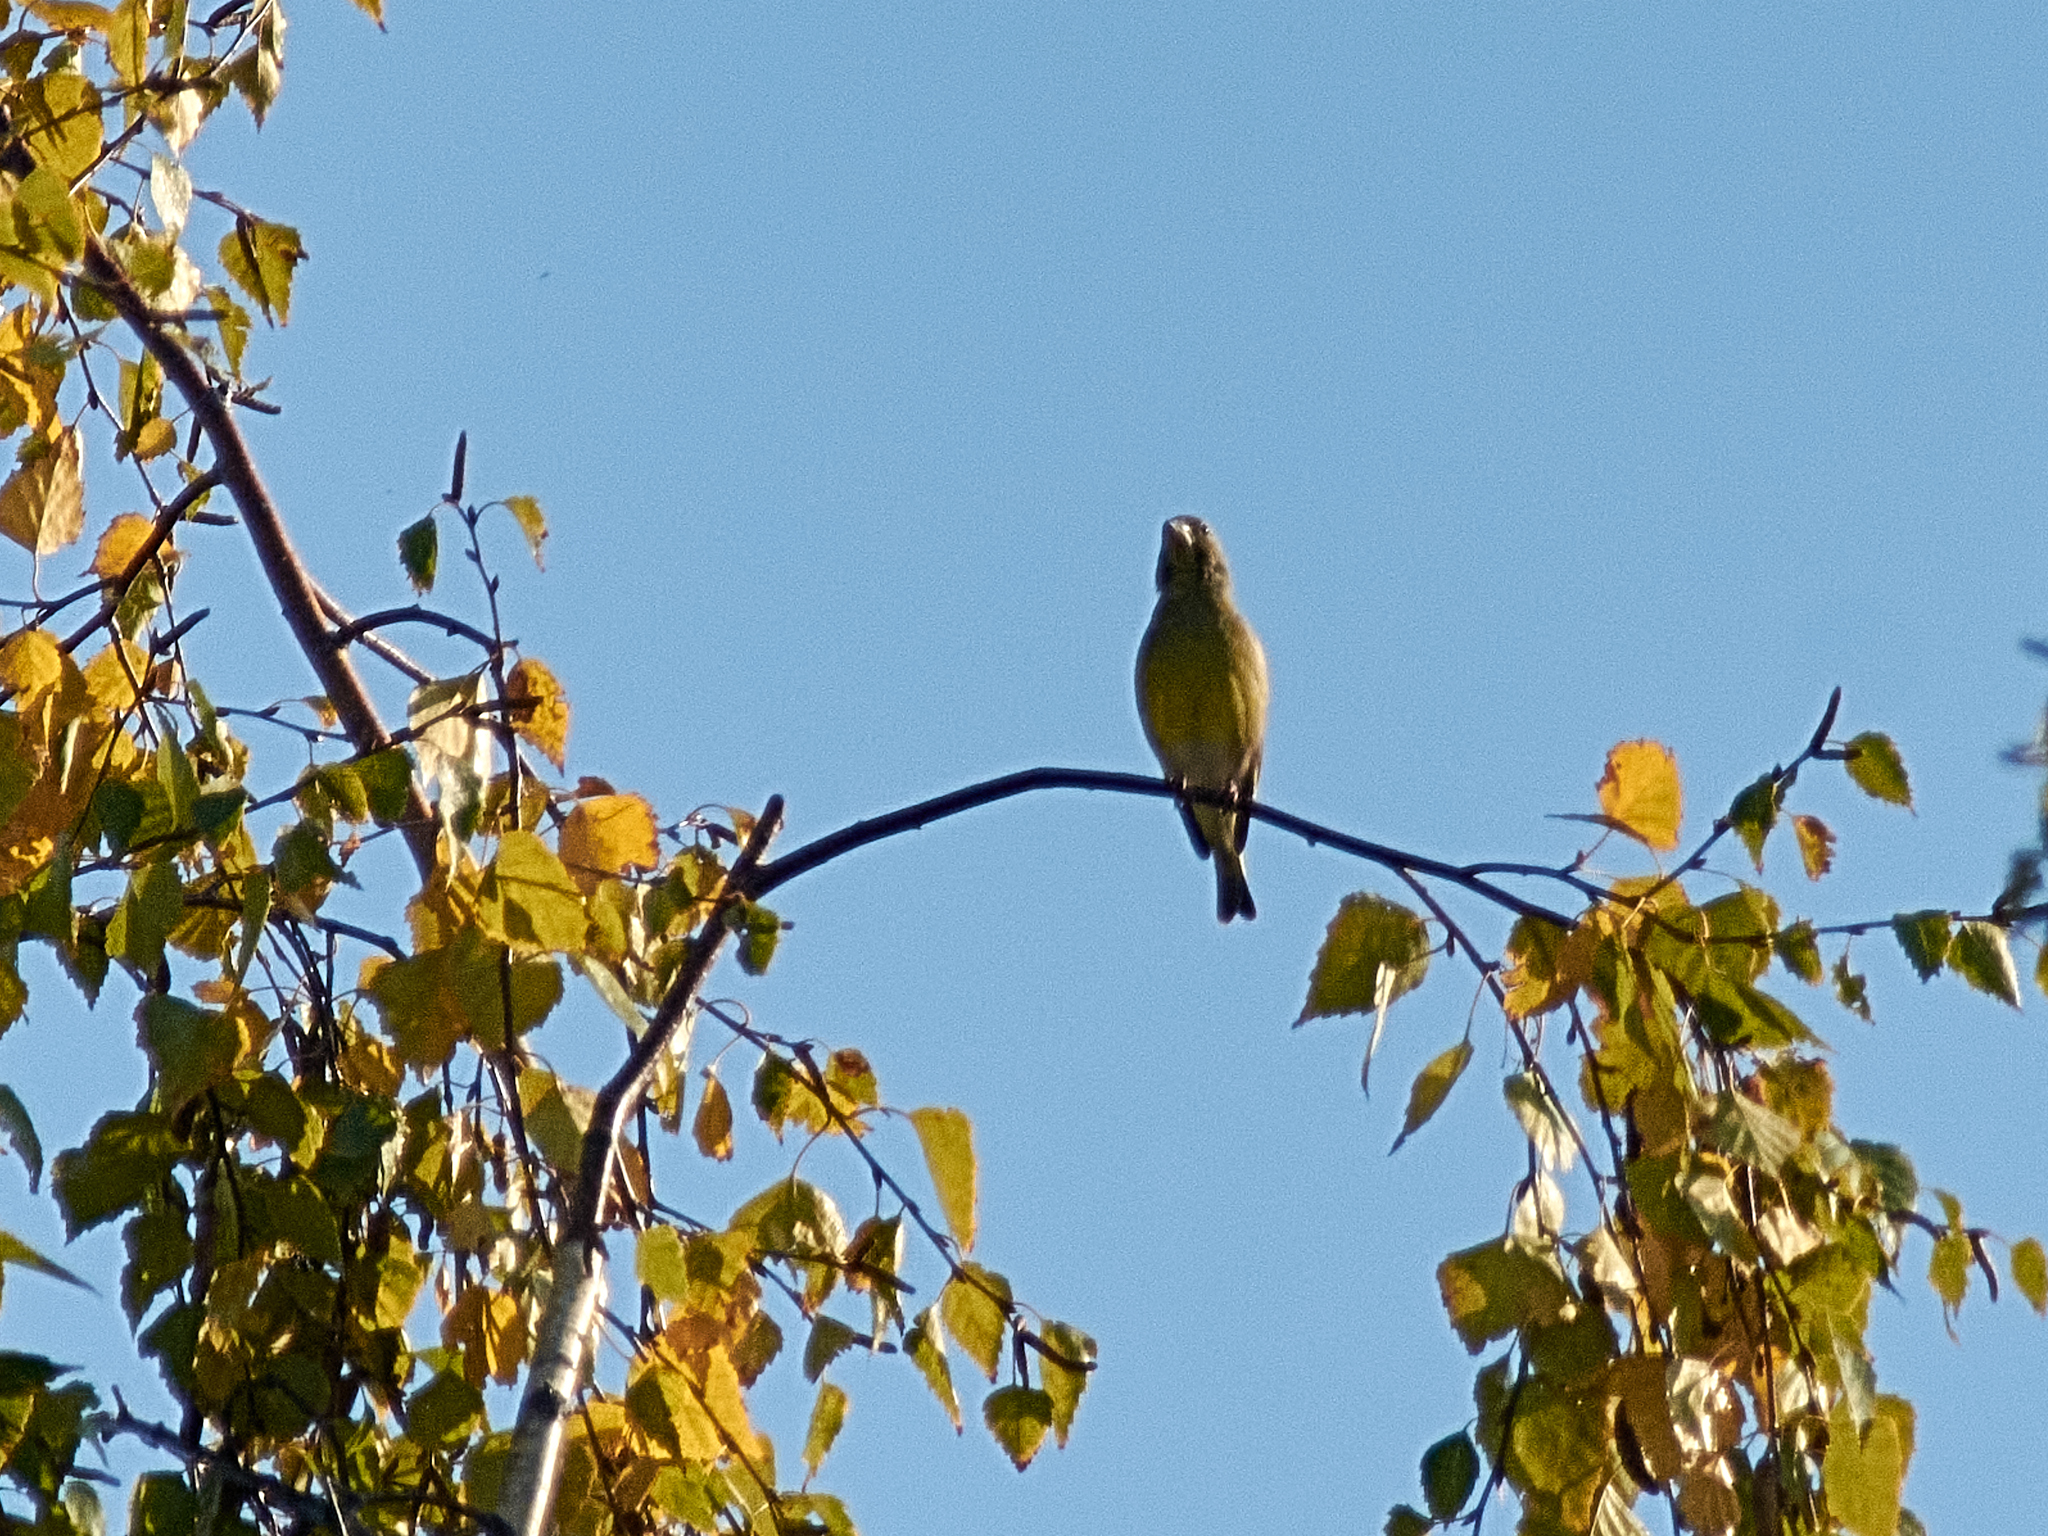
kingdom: Plantae
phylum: Tracheophyta
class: Liliopsida
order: Poales
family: Poaceae
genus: Chloris
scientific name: Chloris chloris
